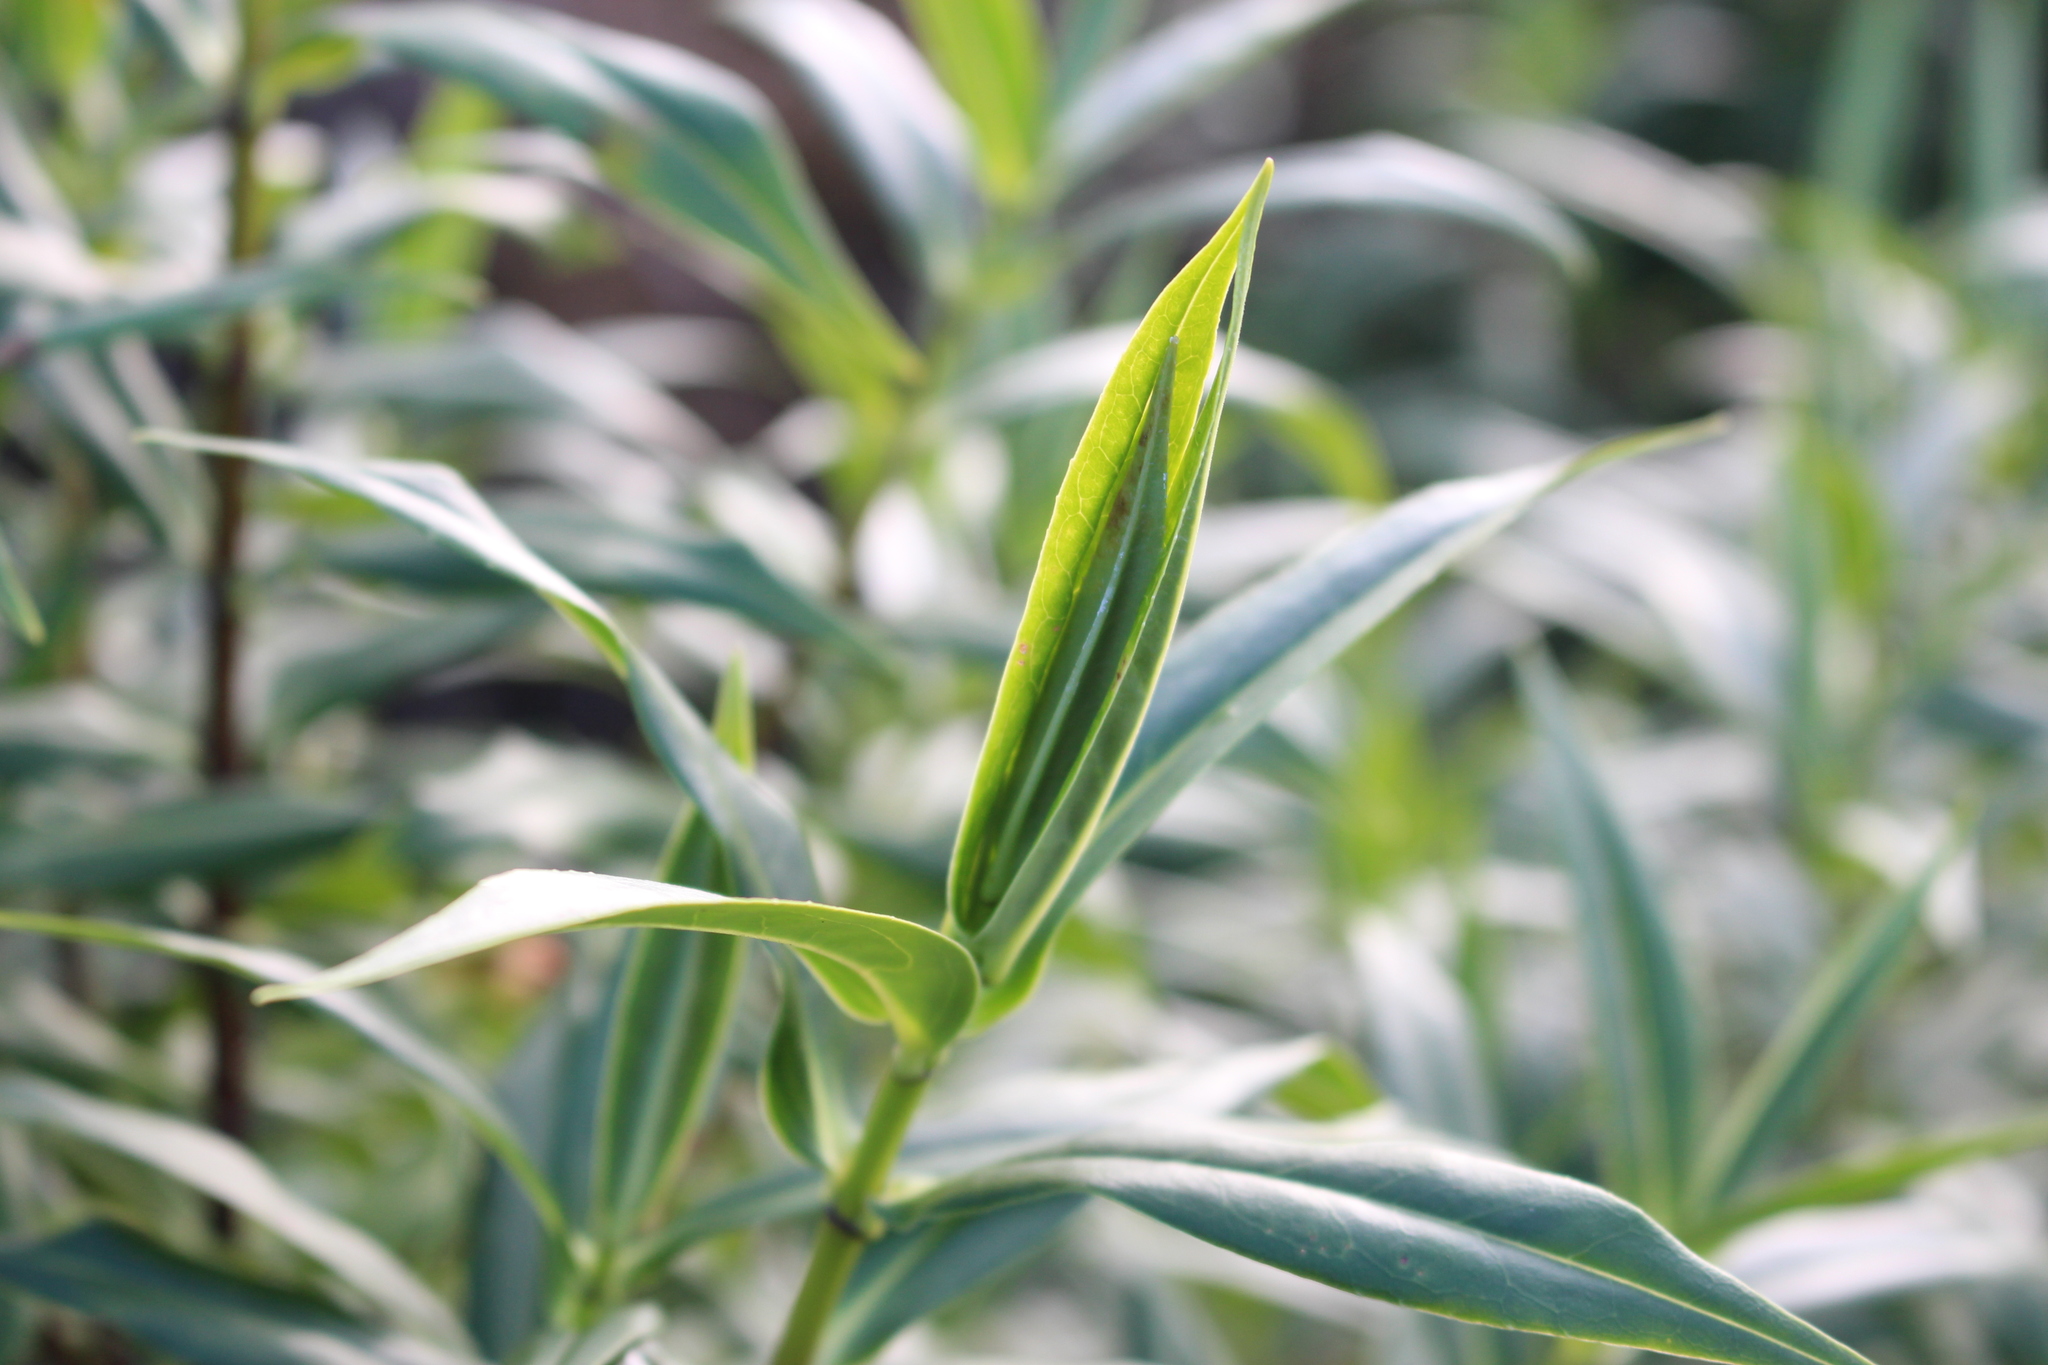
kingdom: Plantae
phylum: Tracheophyta
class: Magnoliopsida
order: Lamiales
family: Plantaginaceae
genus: Veronica
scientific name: Veronica salicifolia
